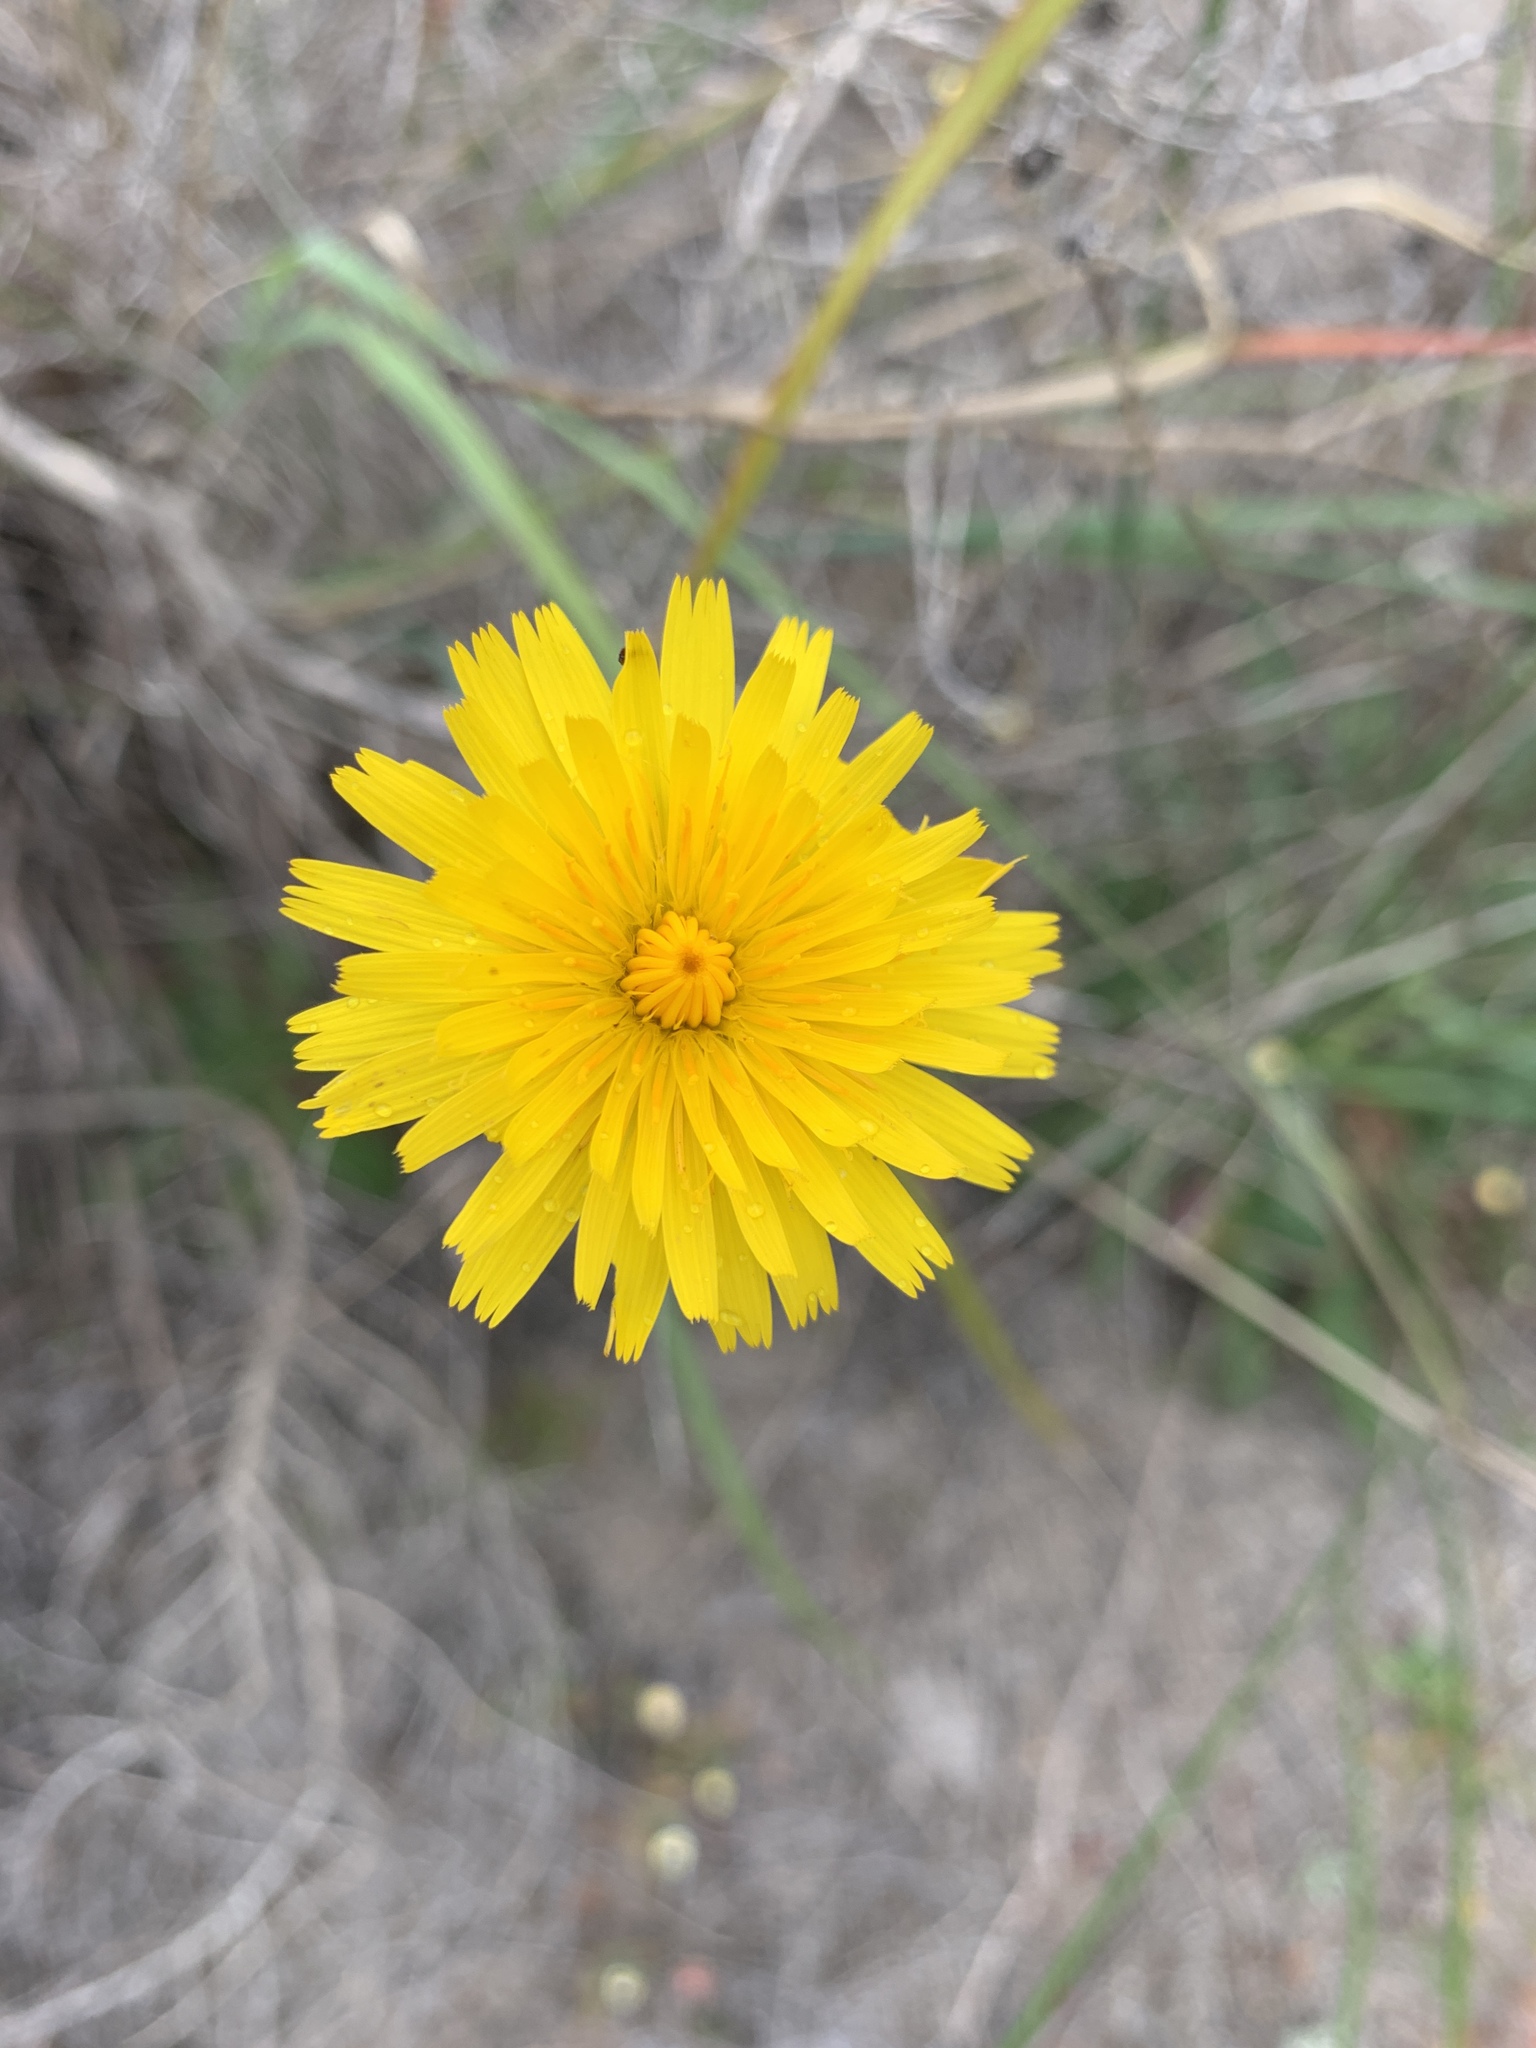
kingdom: Plantae
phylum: Tracheophyta
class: Magnoliopsida
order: Asterales
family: Asteraceae
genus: Hypochaeris
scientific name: Hypochaeris radicata
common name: Flatweed
